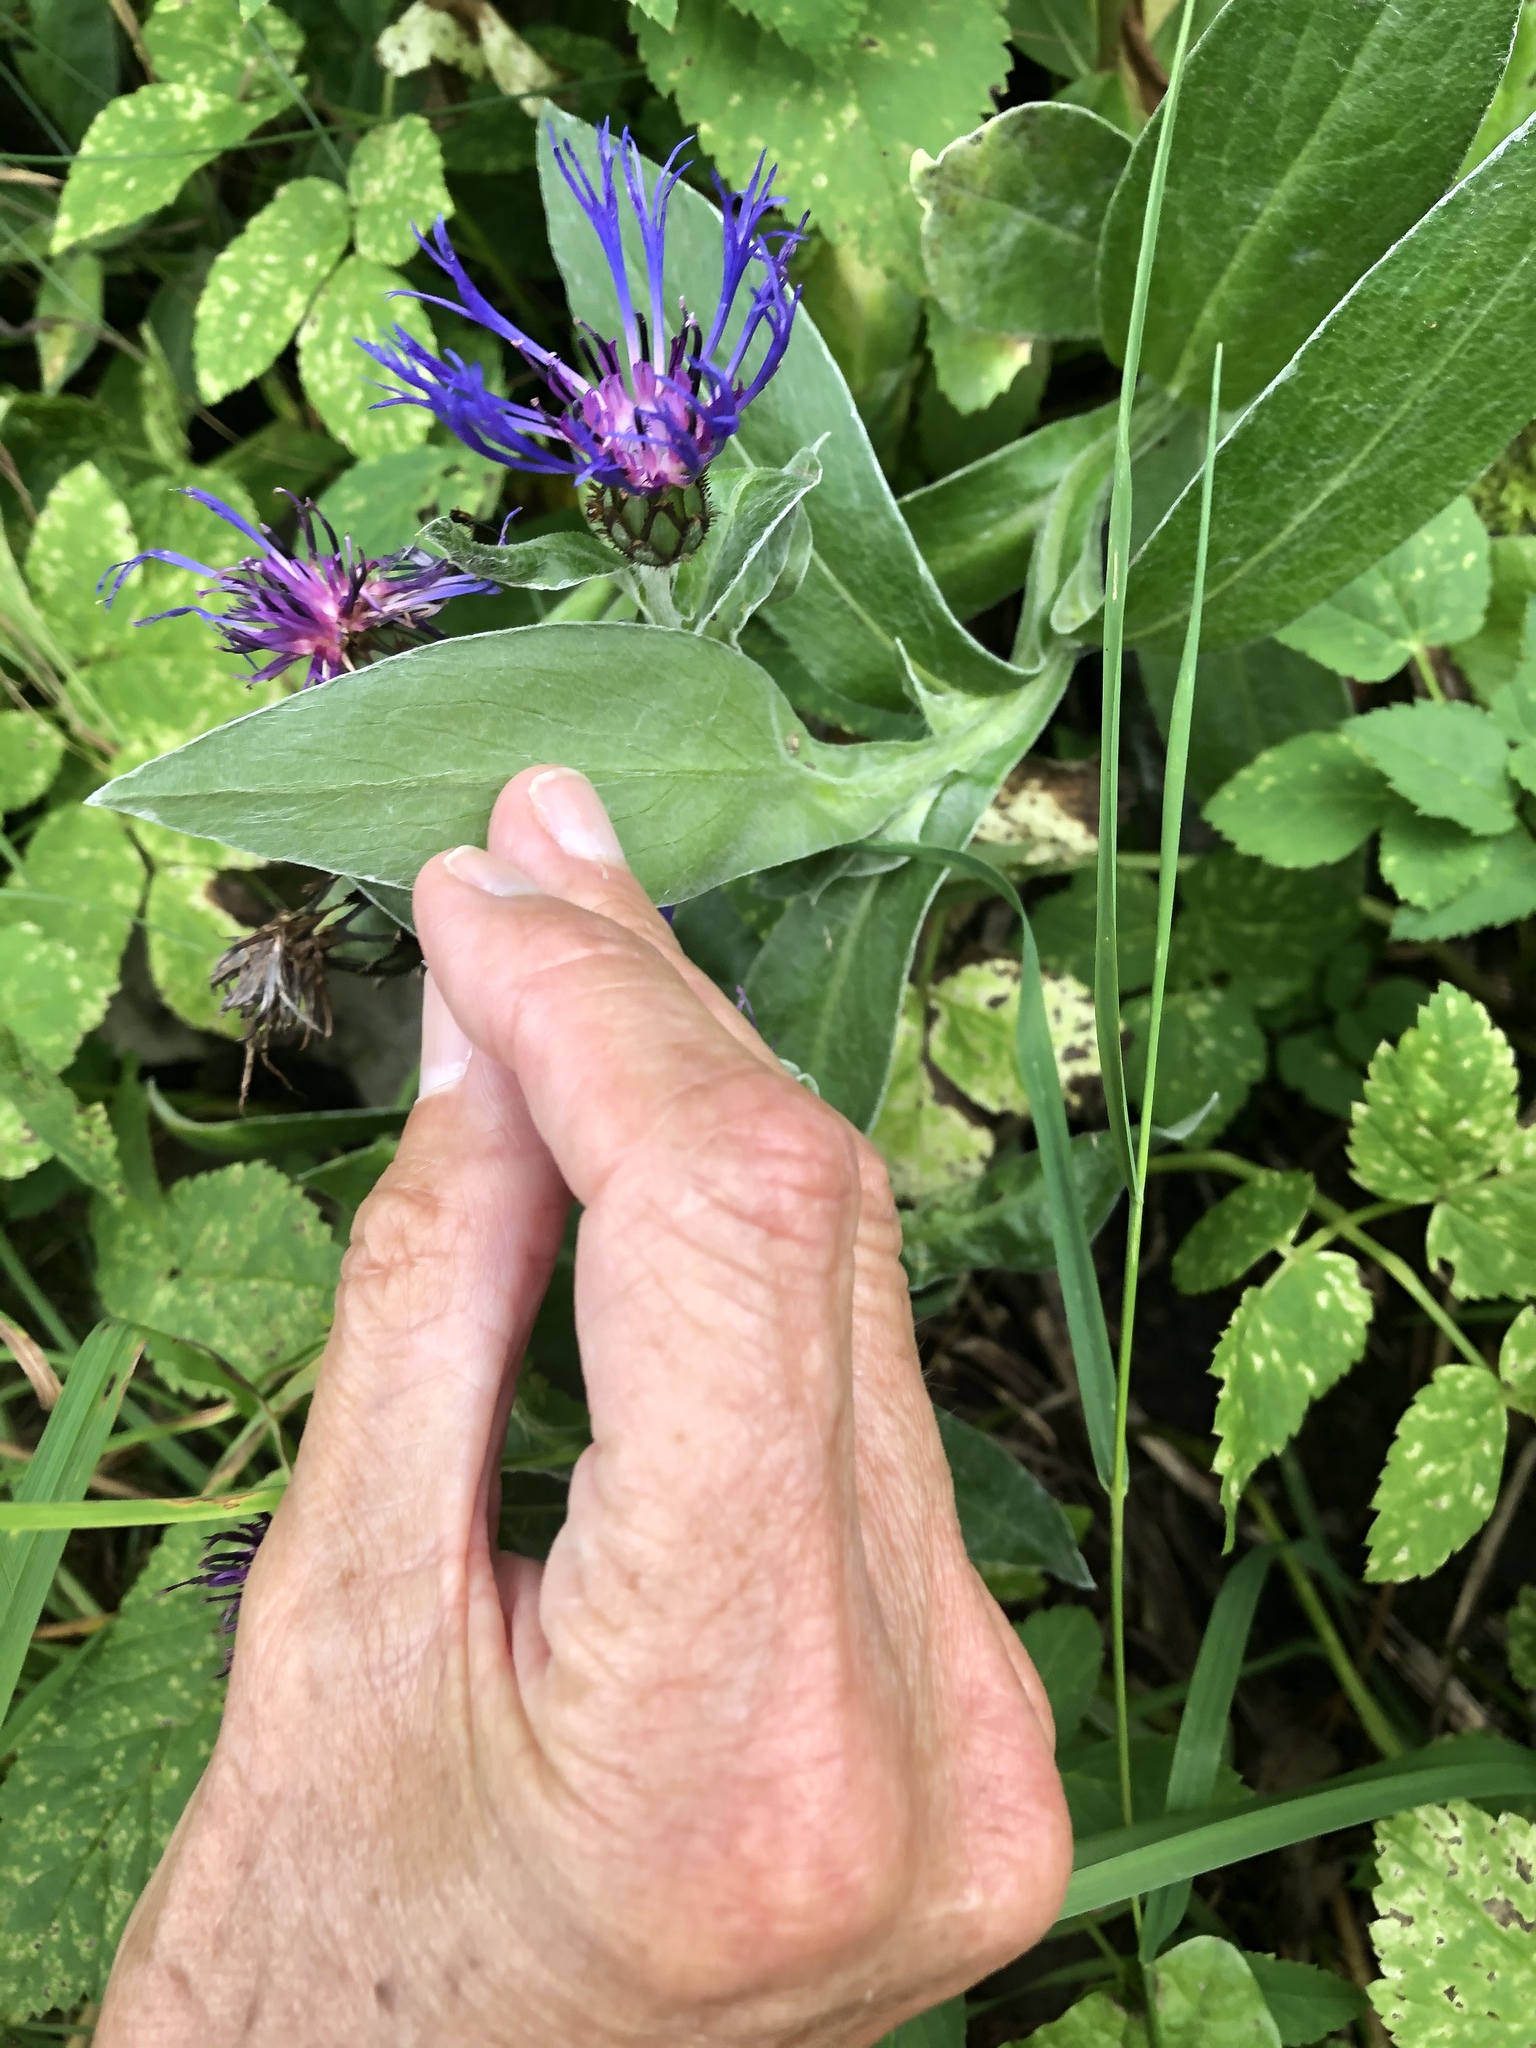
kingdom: Plantae
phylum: Tracheophyta
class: Magnoliopsida
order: Asterales
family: Asteraceae
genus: Centaurea
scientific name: Centaurea montana
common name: Perennial cornflower
